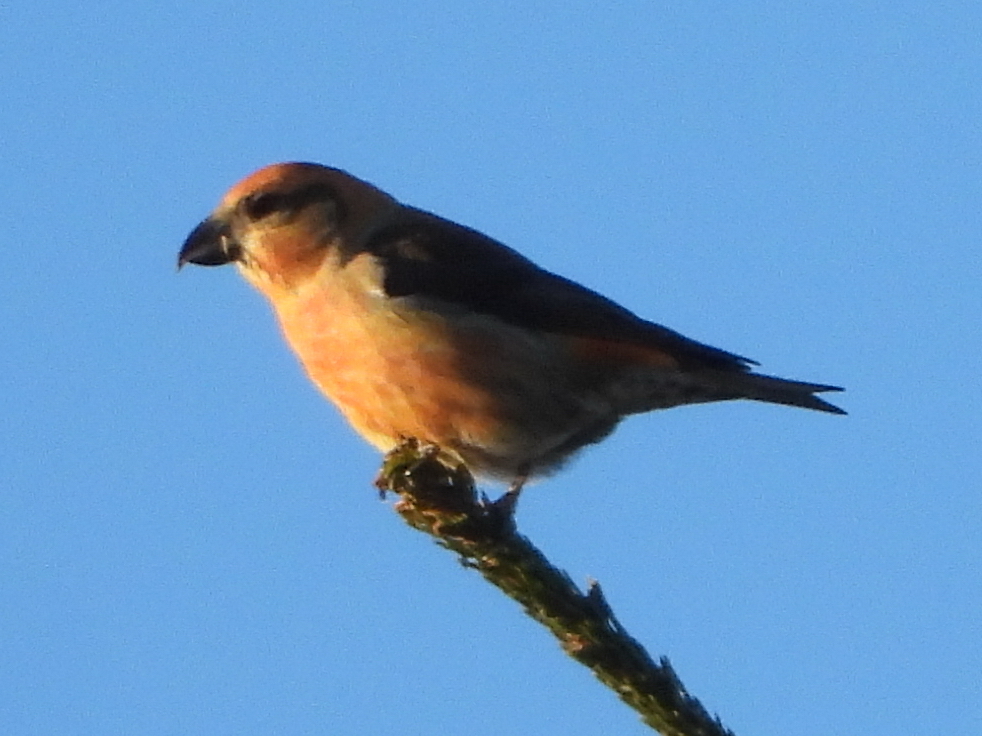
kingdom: Animalia
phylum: Chordata
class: Aves
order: Passeriformes
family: Fringillidae
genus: Loxia
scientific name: Loxia curvirostra
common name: Red crossbill
